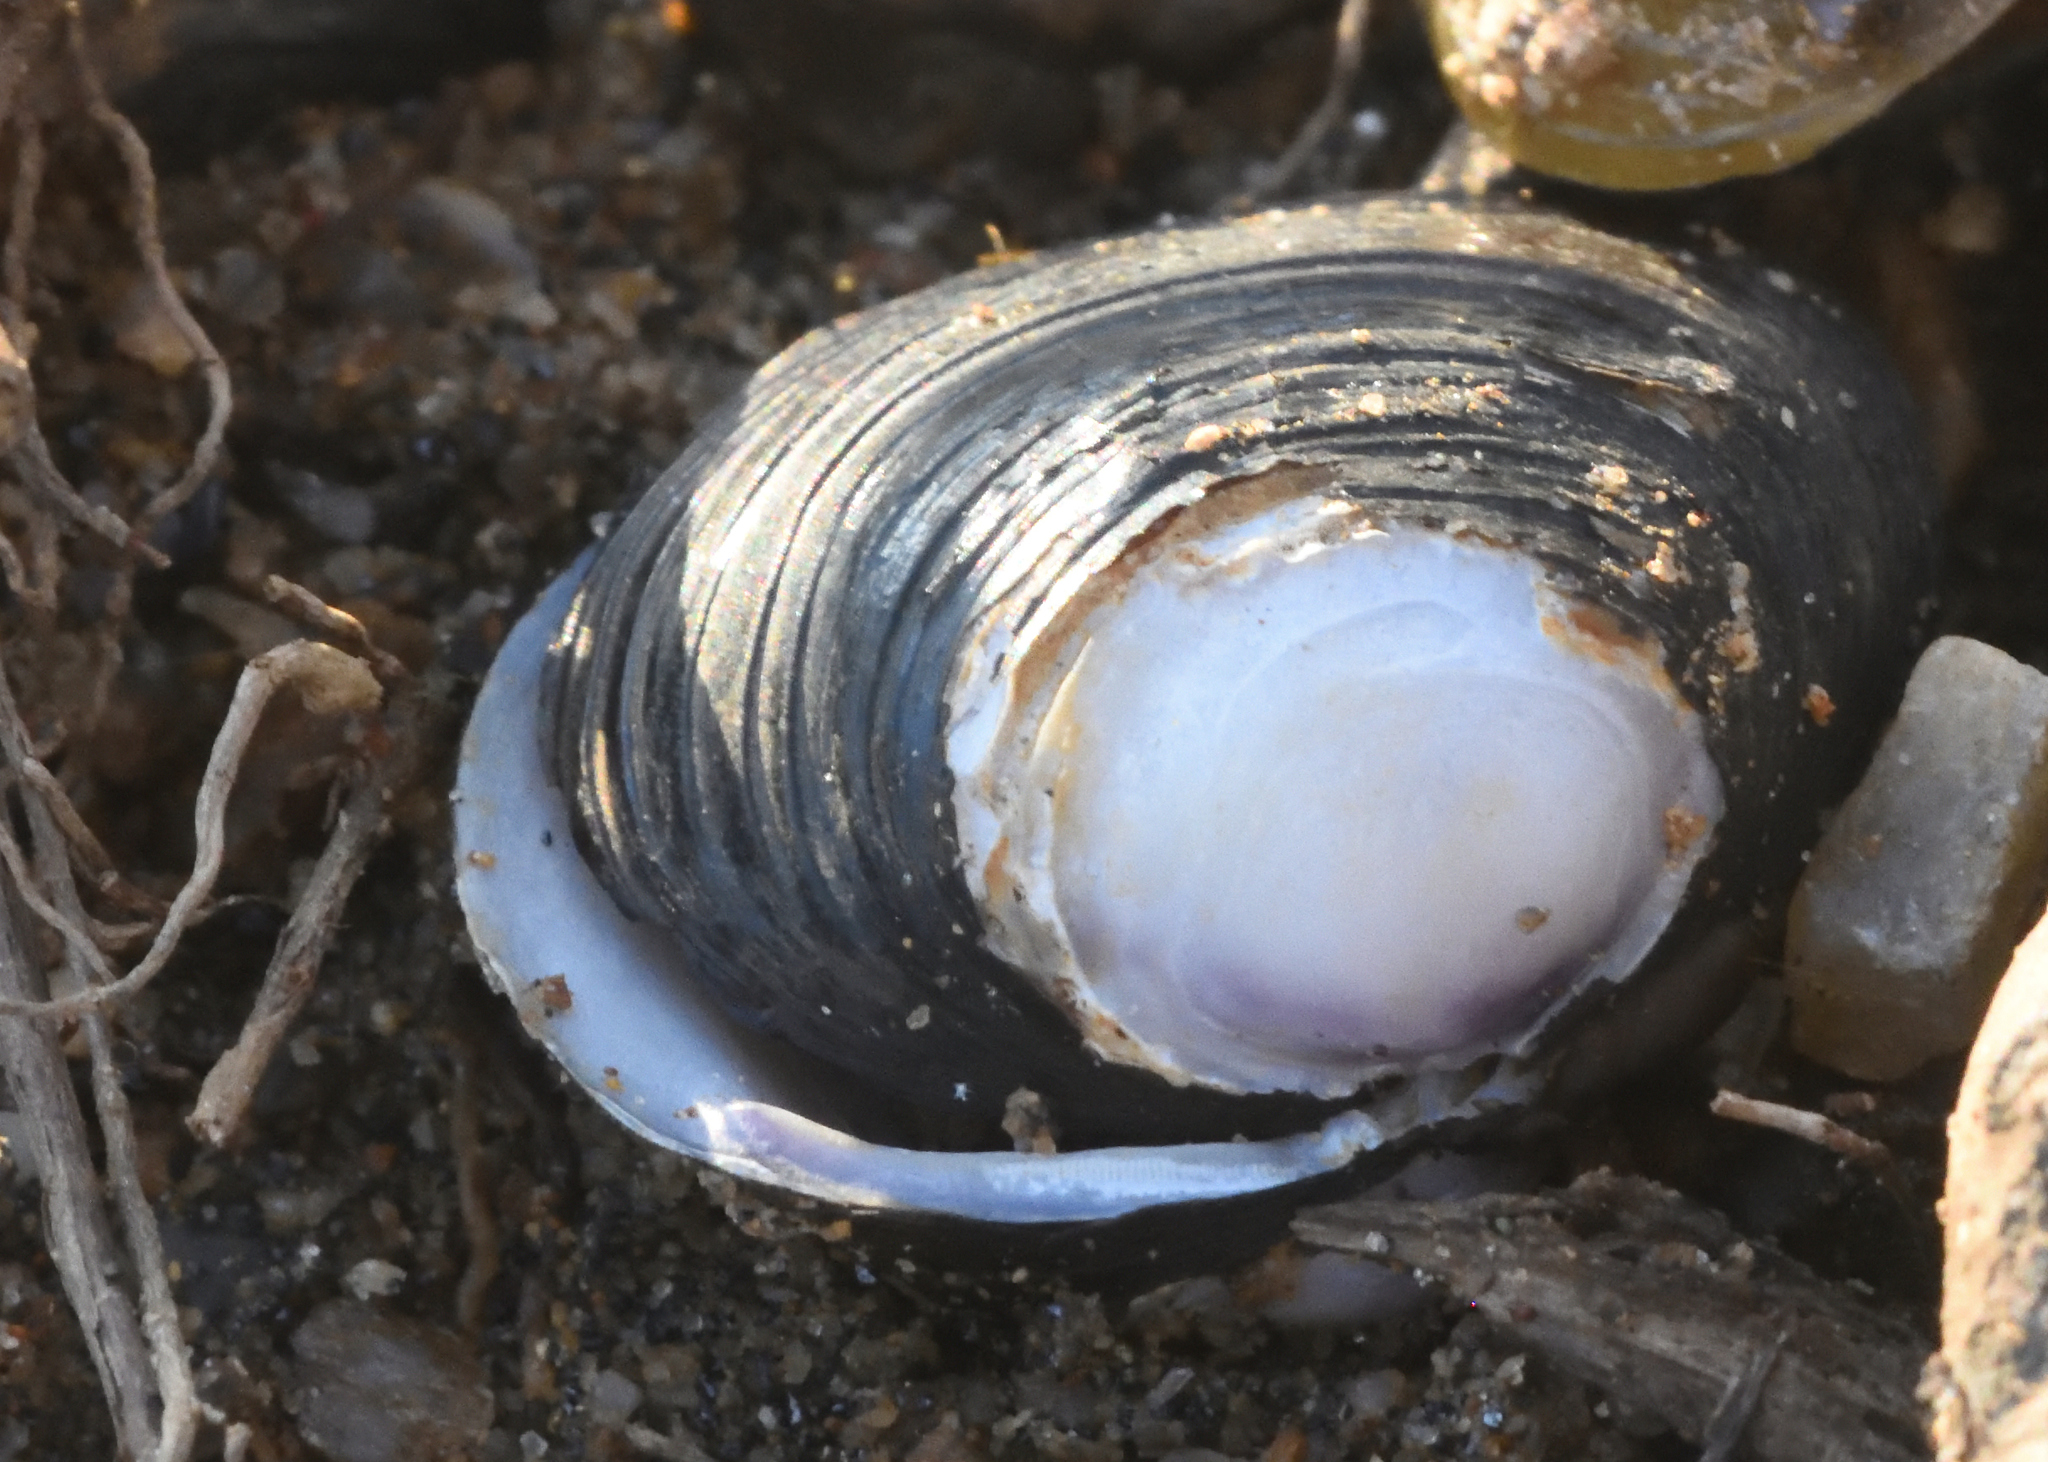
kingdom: Animalia
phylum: Mollusca
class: Bivalvia
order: Venerida
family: Cyrenidae
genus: Corbicula
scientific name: Corbicula fluminea
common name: Asian clam
